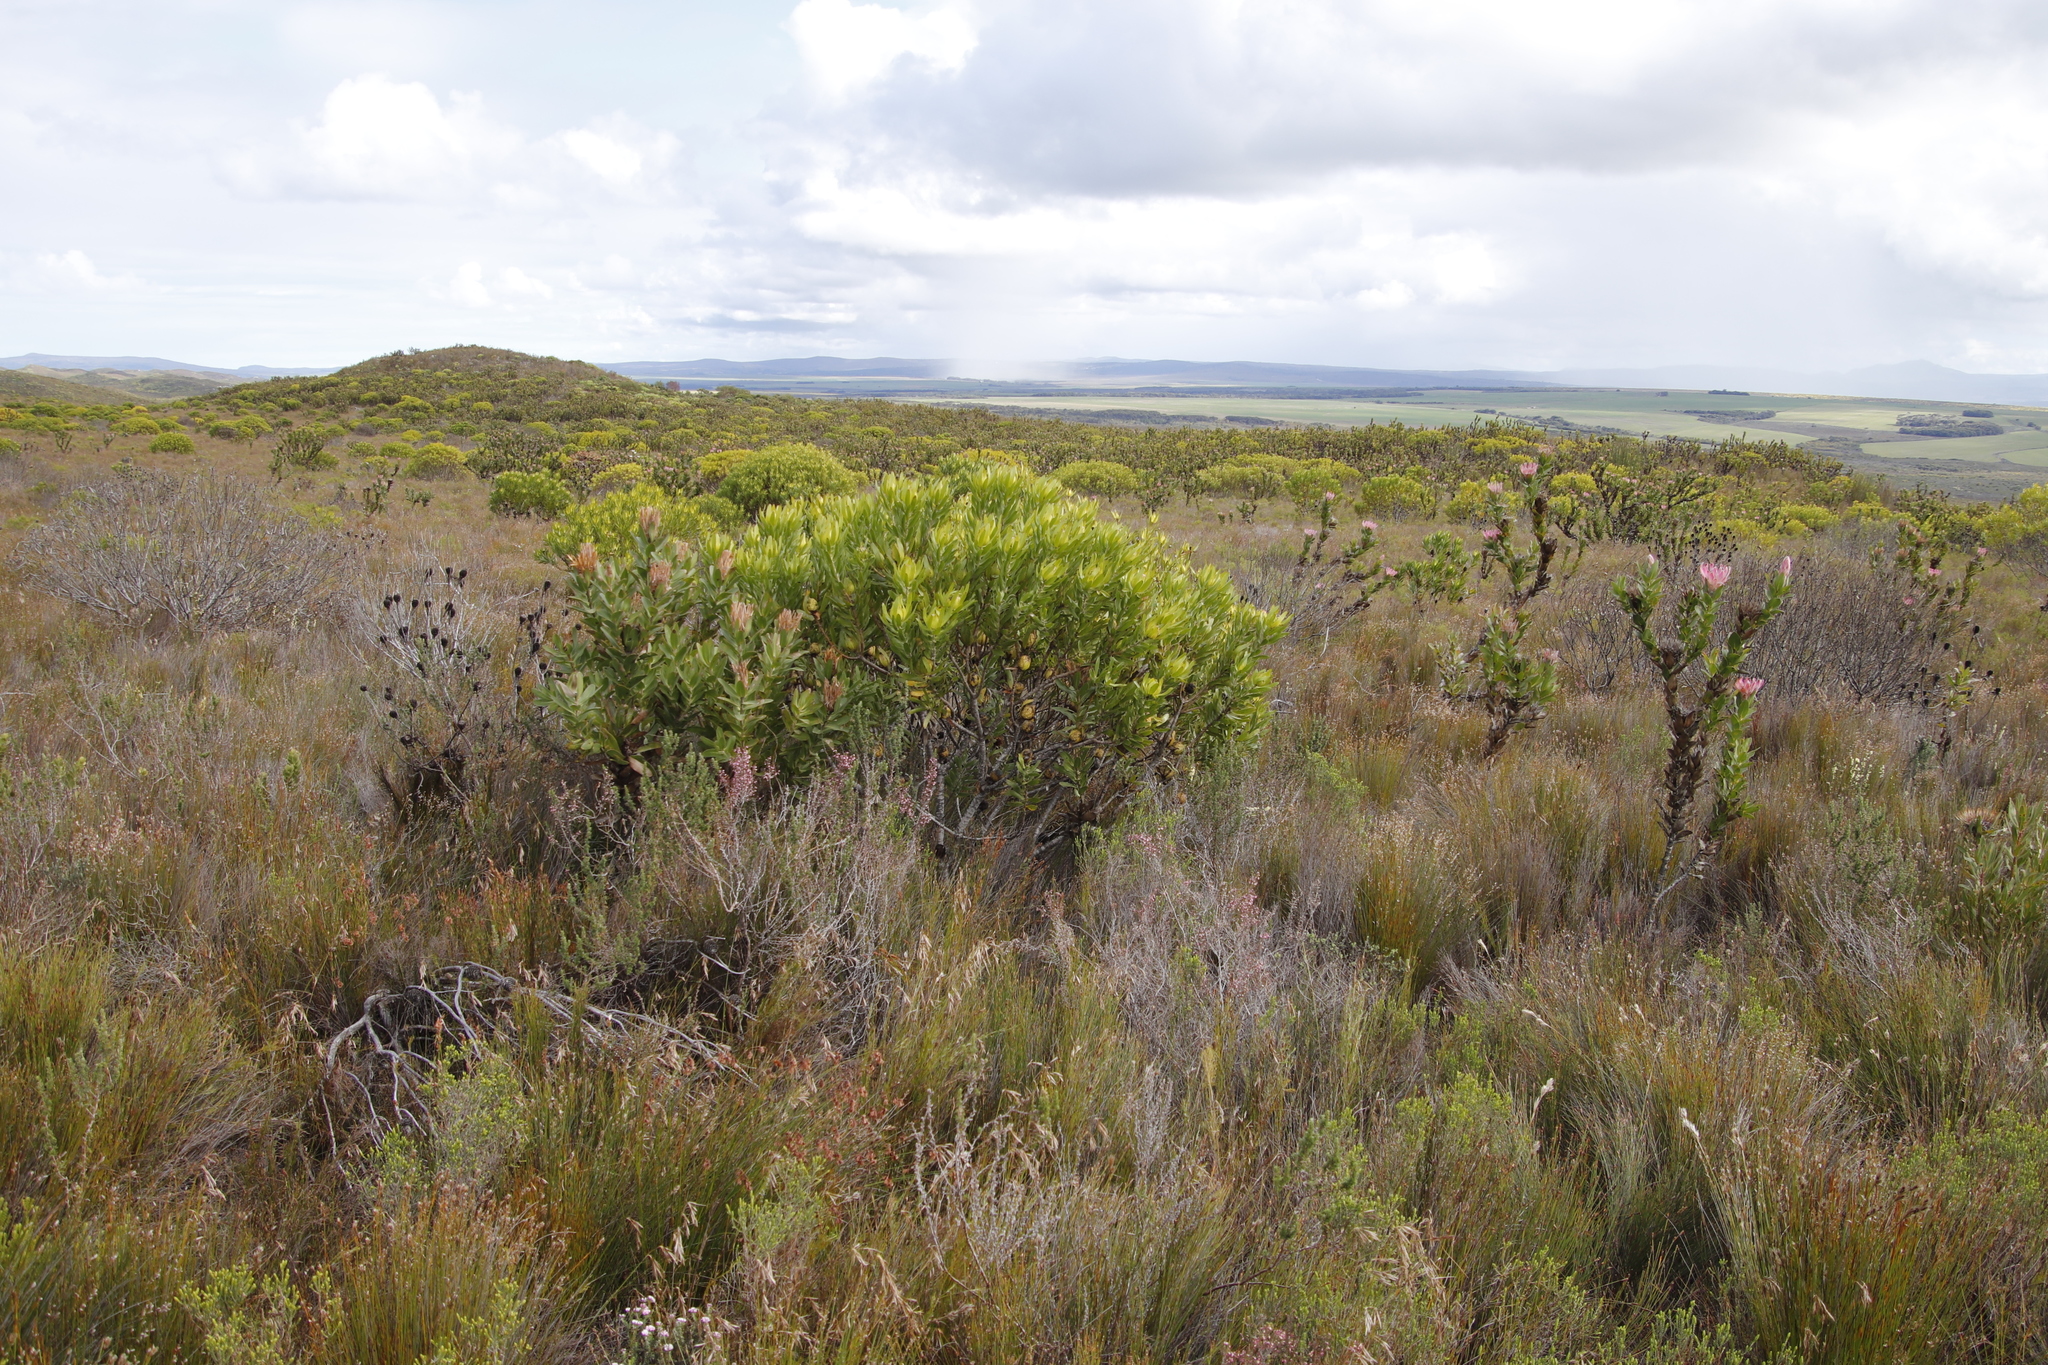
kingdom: Plantae
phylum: Tracheophyta
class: Magnoliopsida
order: Proteales
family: Proteaceae
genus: Leucadendron
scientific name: Leucadendron laureolum
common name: Golden sunshinebush
